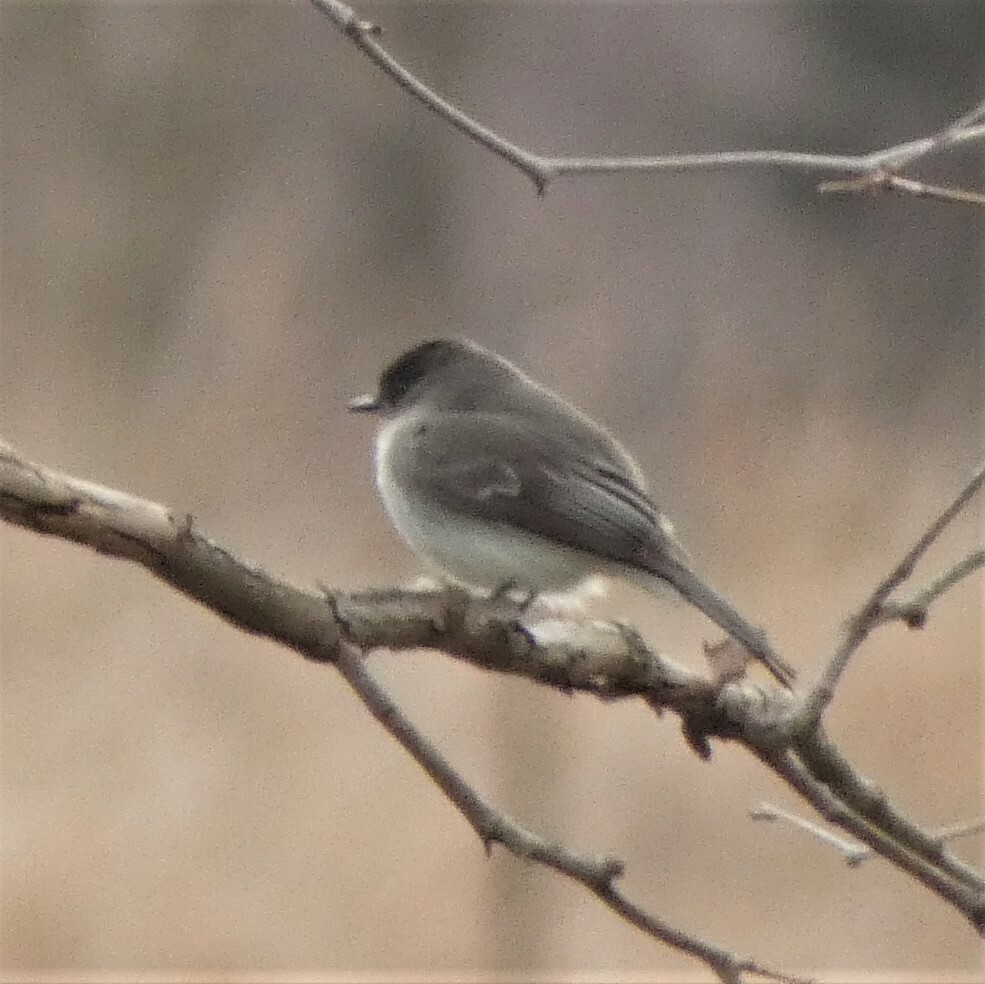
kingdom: Animalia
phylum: Chordata
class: Aves
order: Passeriformes
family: Tyrannidae
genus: Sayornis
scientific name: Sayornis phoebe
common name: Eastern phoebe
